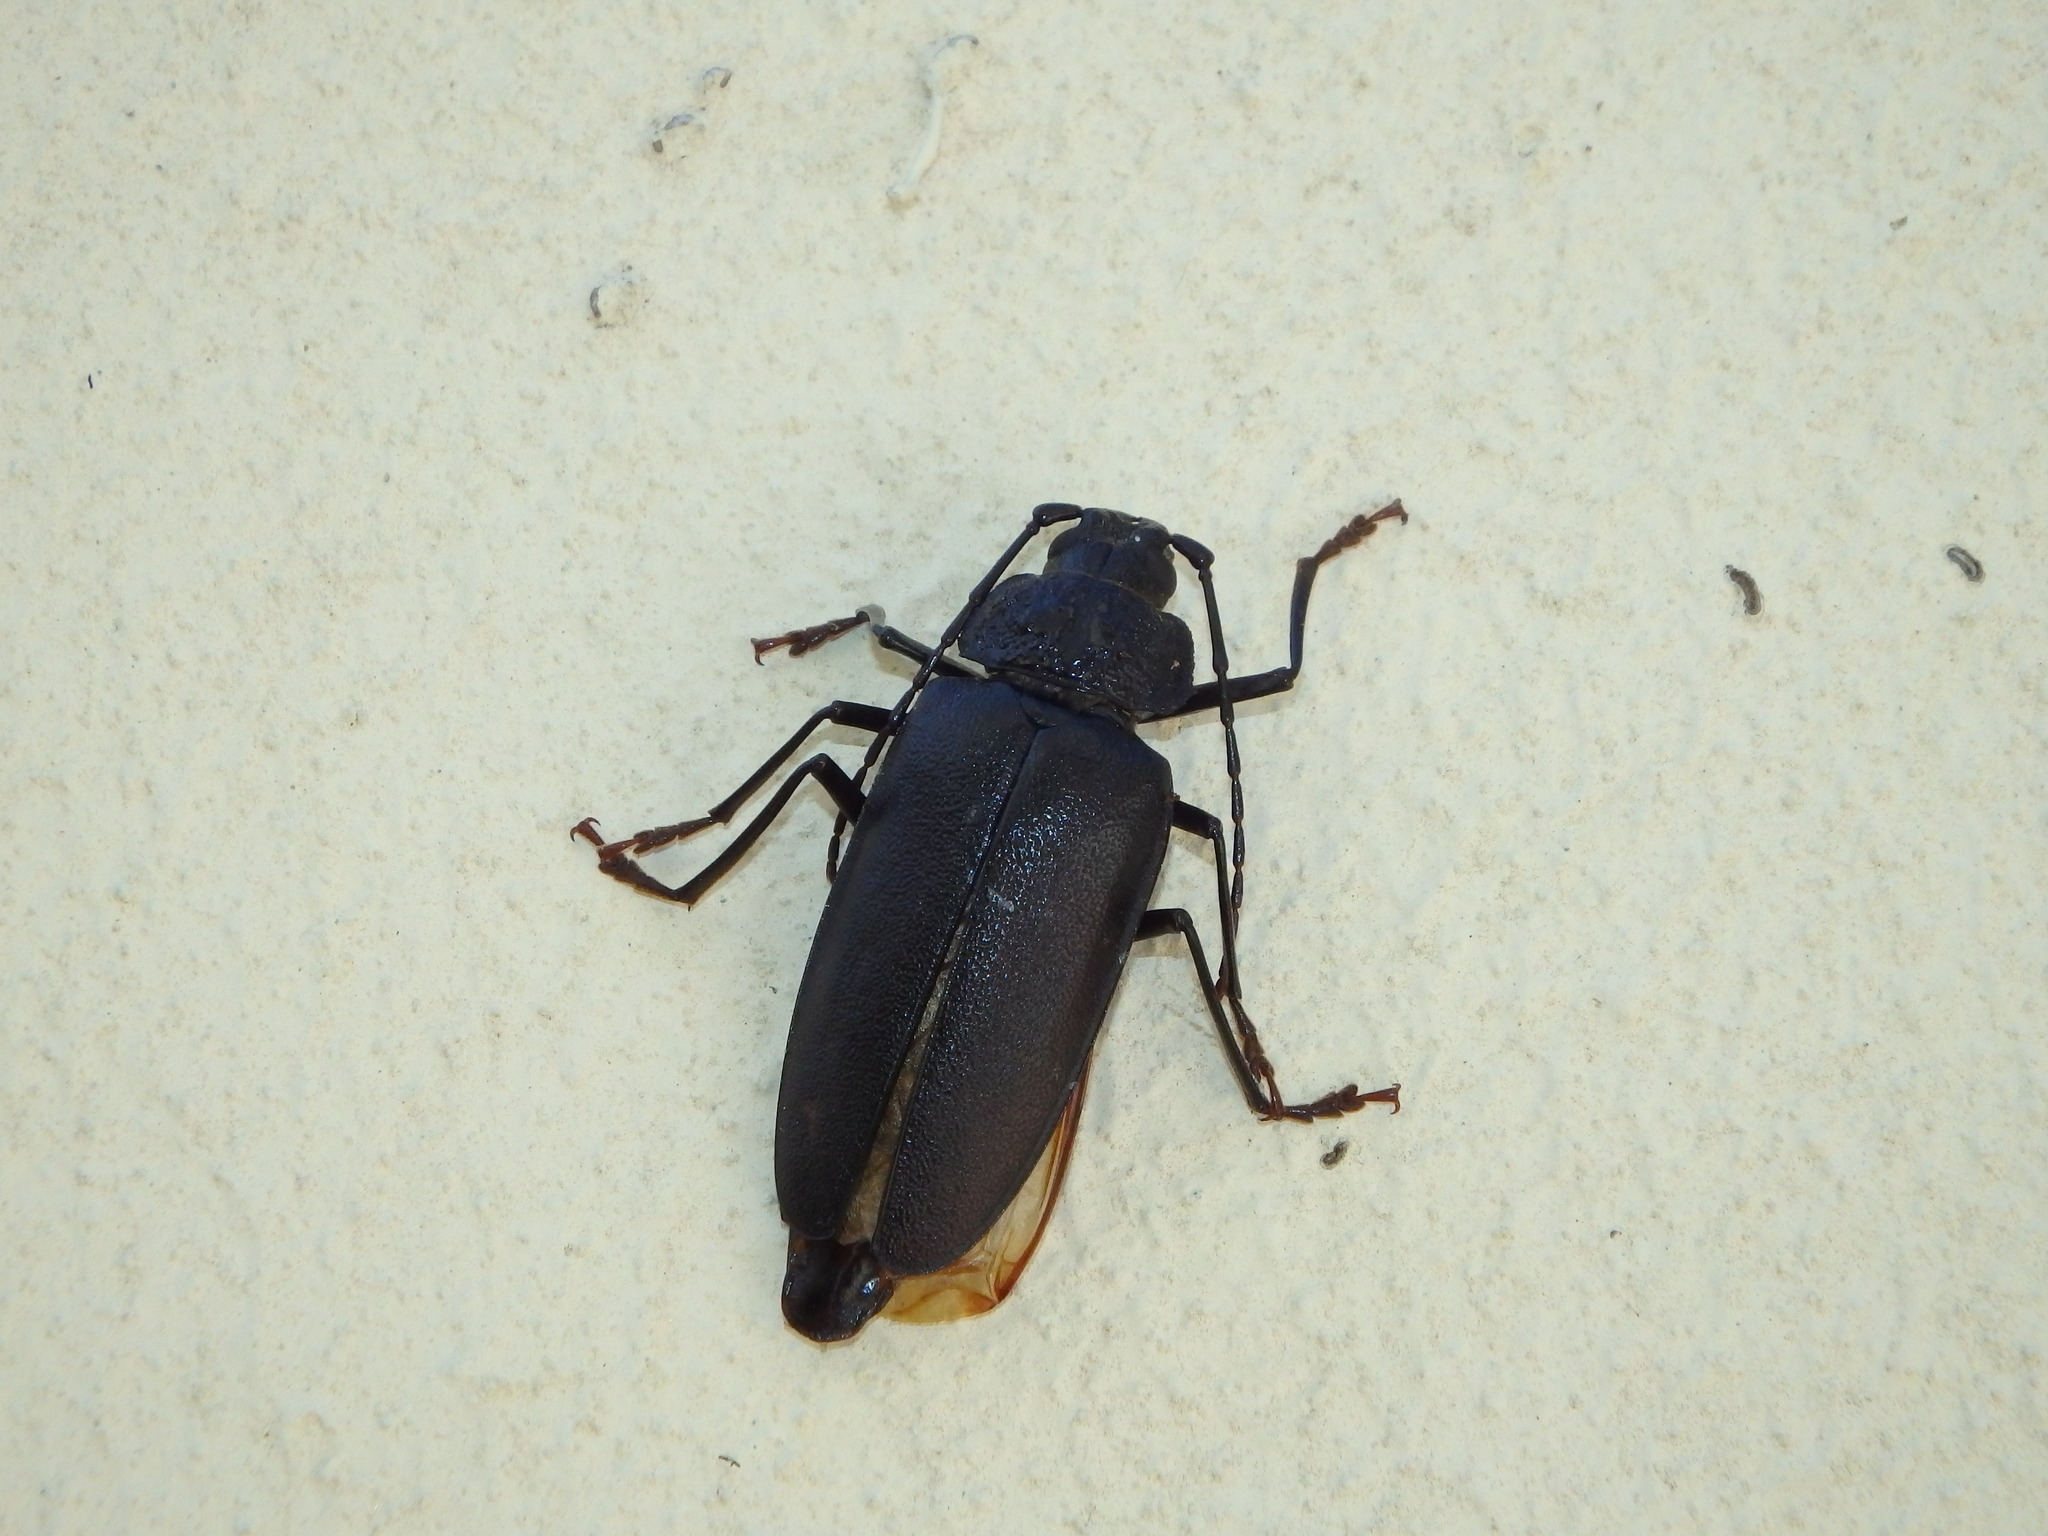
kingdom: Animalia
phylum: Arthropoda
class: Insecta
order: Coleoptera
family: Cerambycidae
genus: Ergates
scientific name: Ergates faber
